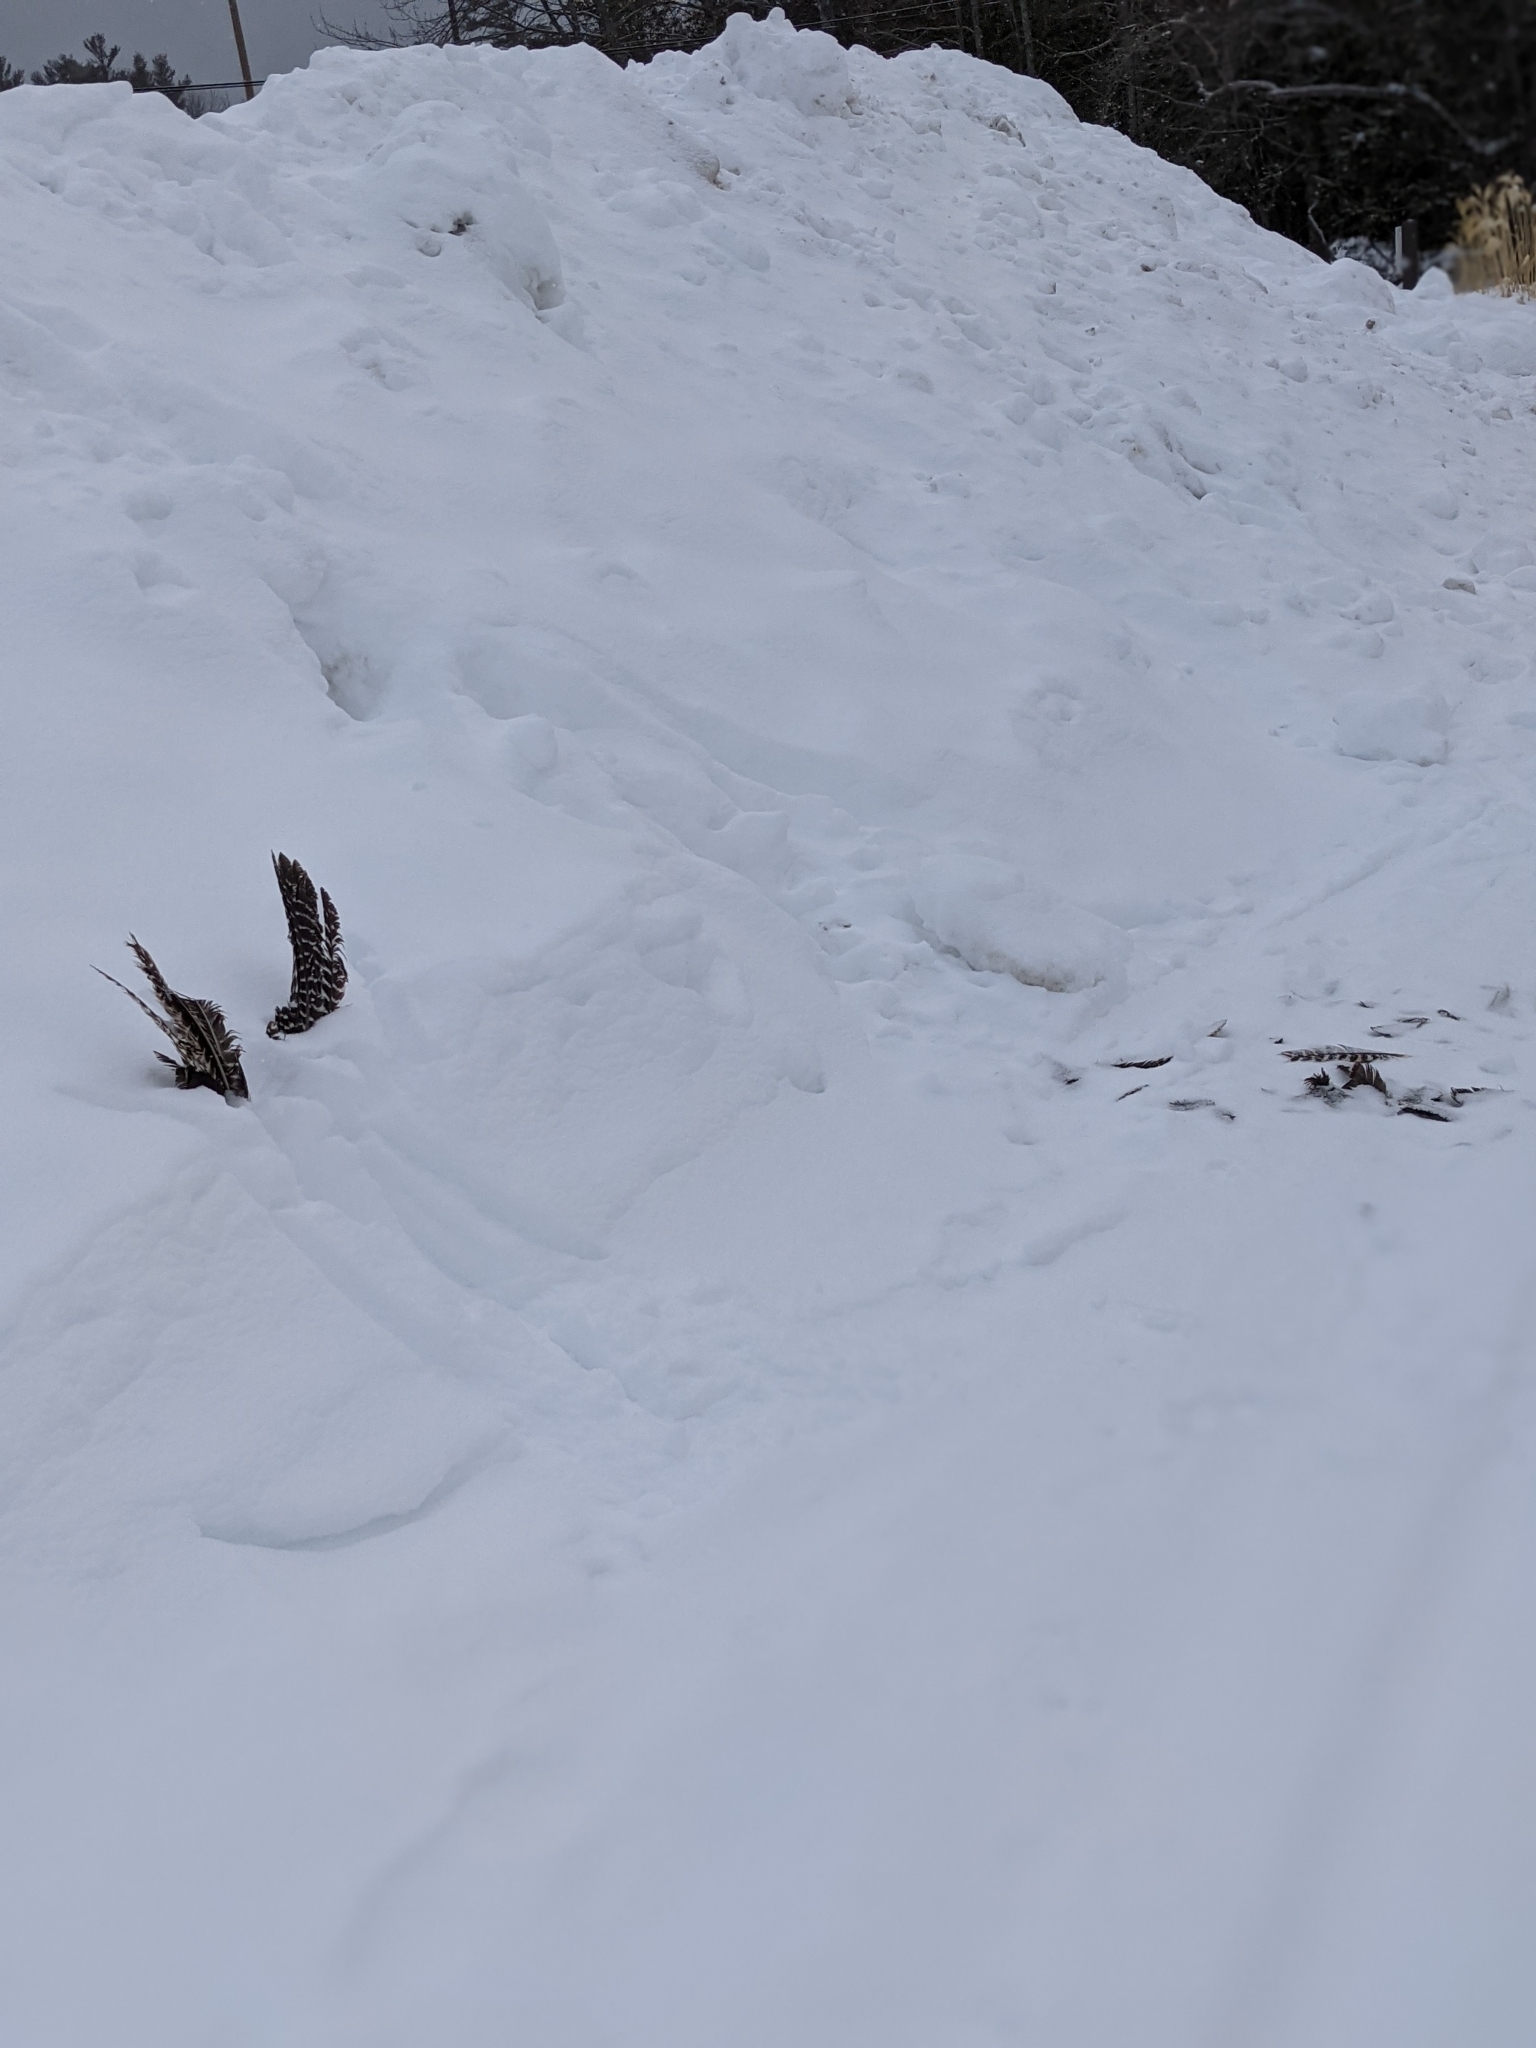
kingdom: Animalia
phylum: Chordata
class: Aves
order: Galliformes
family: Phasianidae
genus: Meleagris
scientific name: Meleagris gallopavo
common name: Wild turkey
